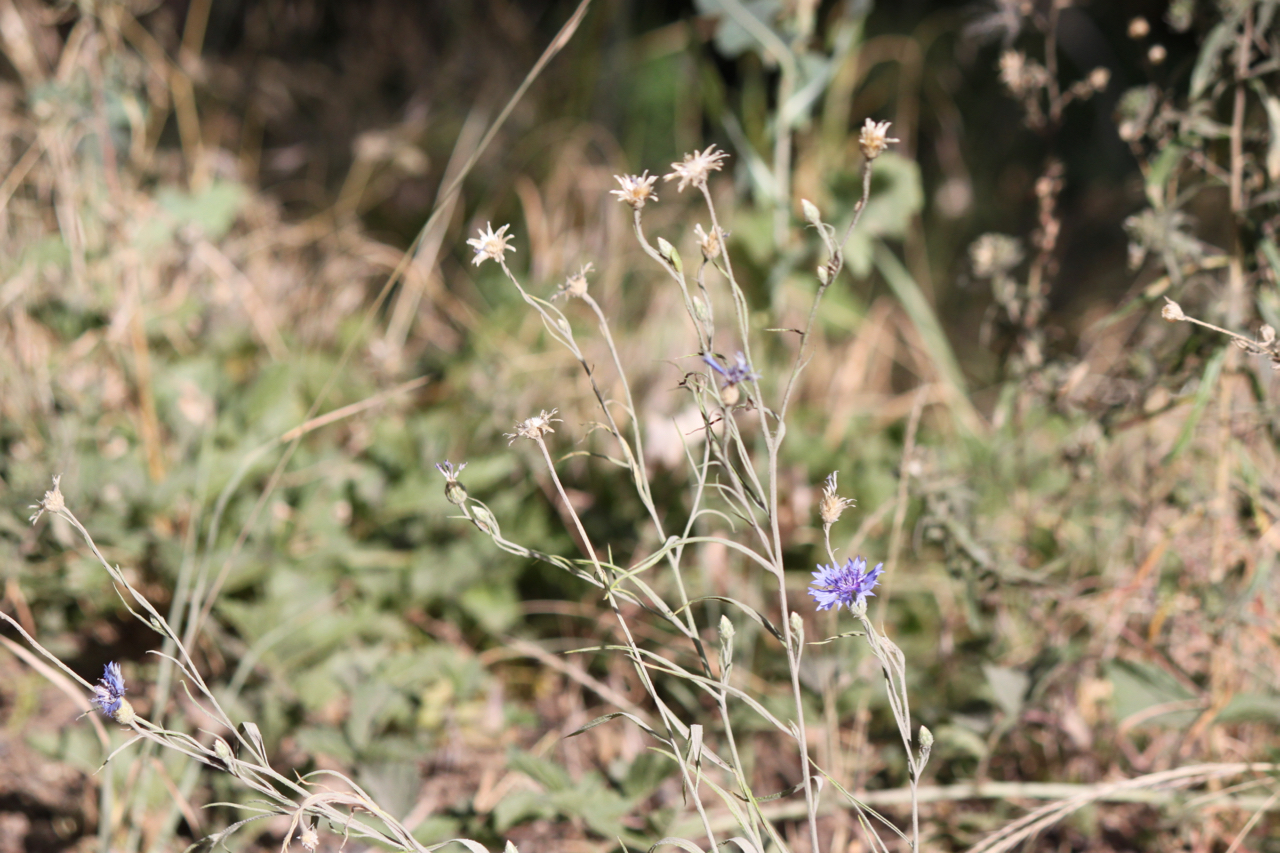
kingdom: Plantae
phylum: Tracheophyta
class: Magnoliopsida
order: Asterales
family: Asteraceae
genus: Centaurea
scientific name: Centaurea cyanus
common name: Cornflower
